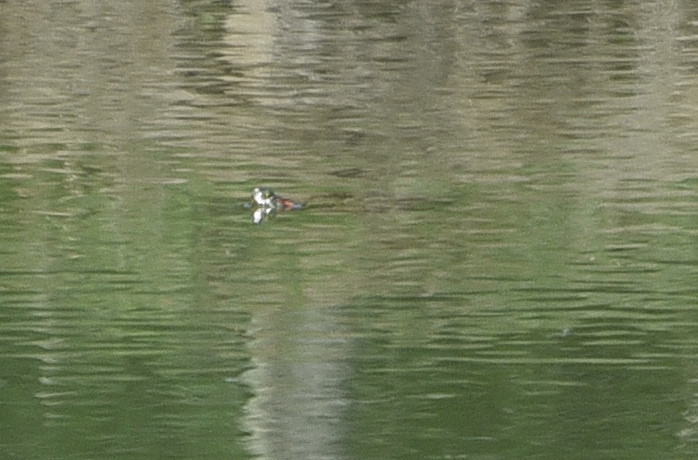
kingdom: Animalia
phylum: Chordata
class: Testudines
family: Emydidae
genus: Trachemys
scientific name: Trachemys scripta
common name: Slider
